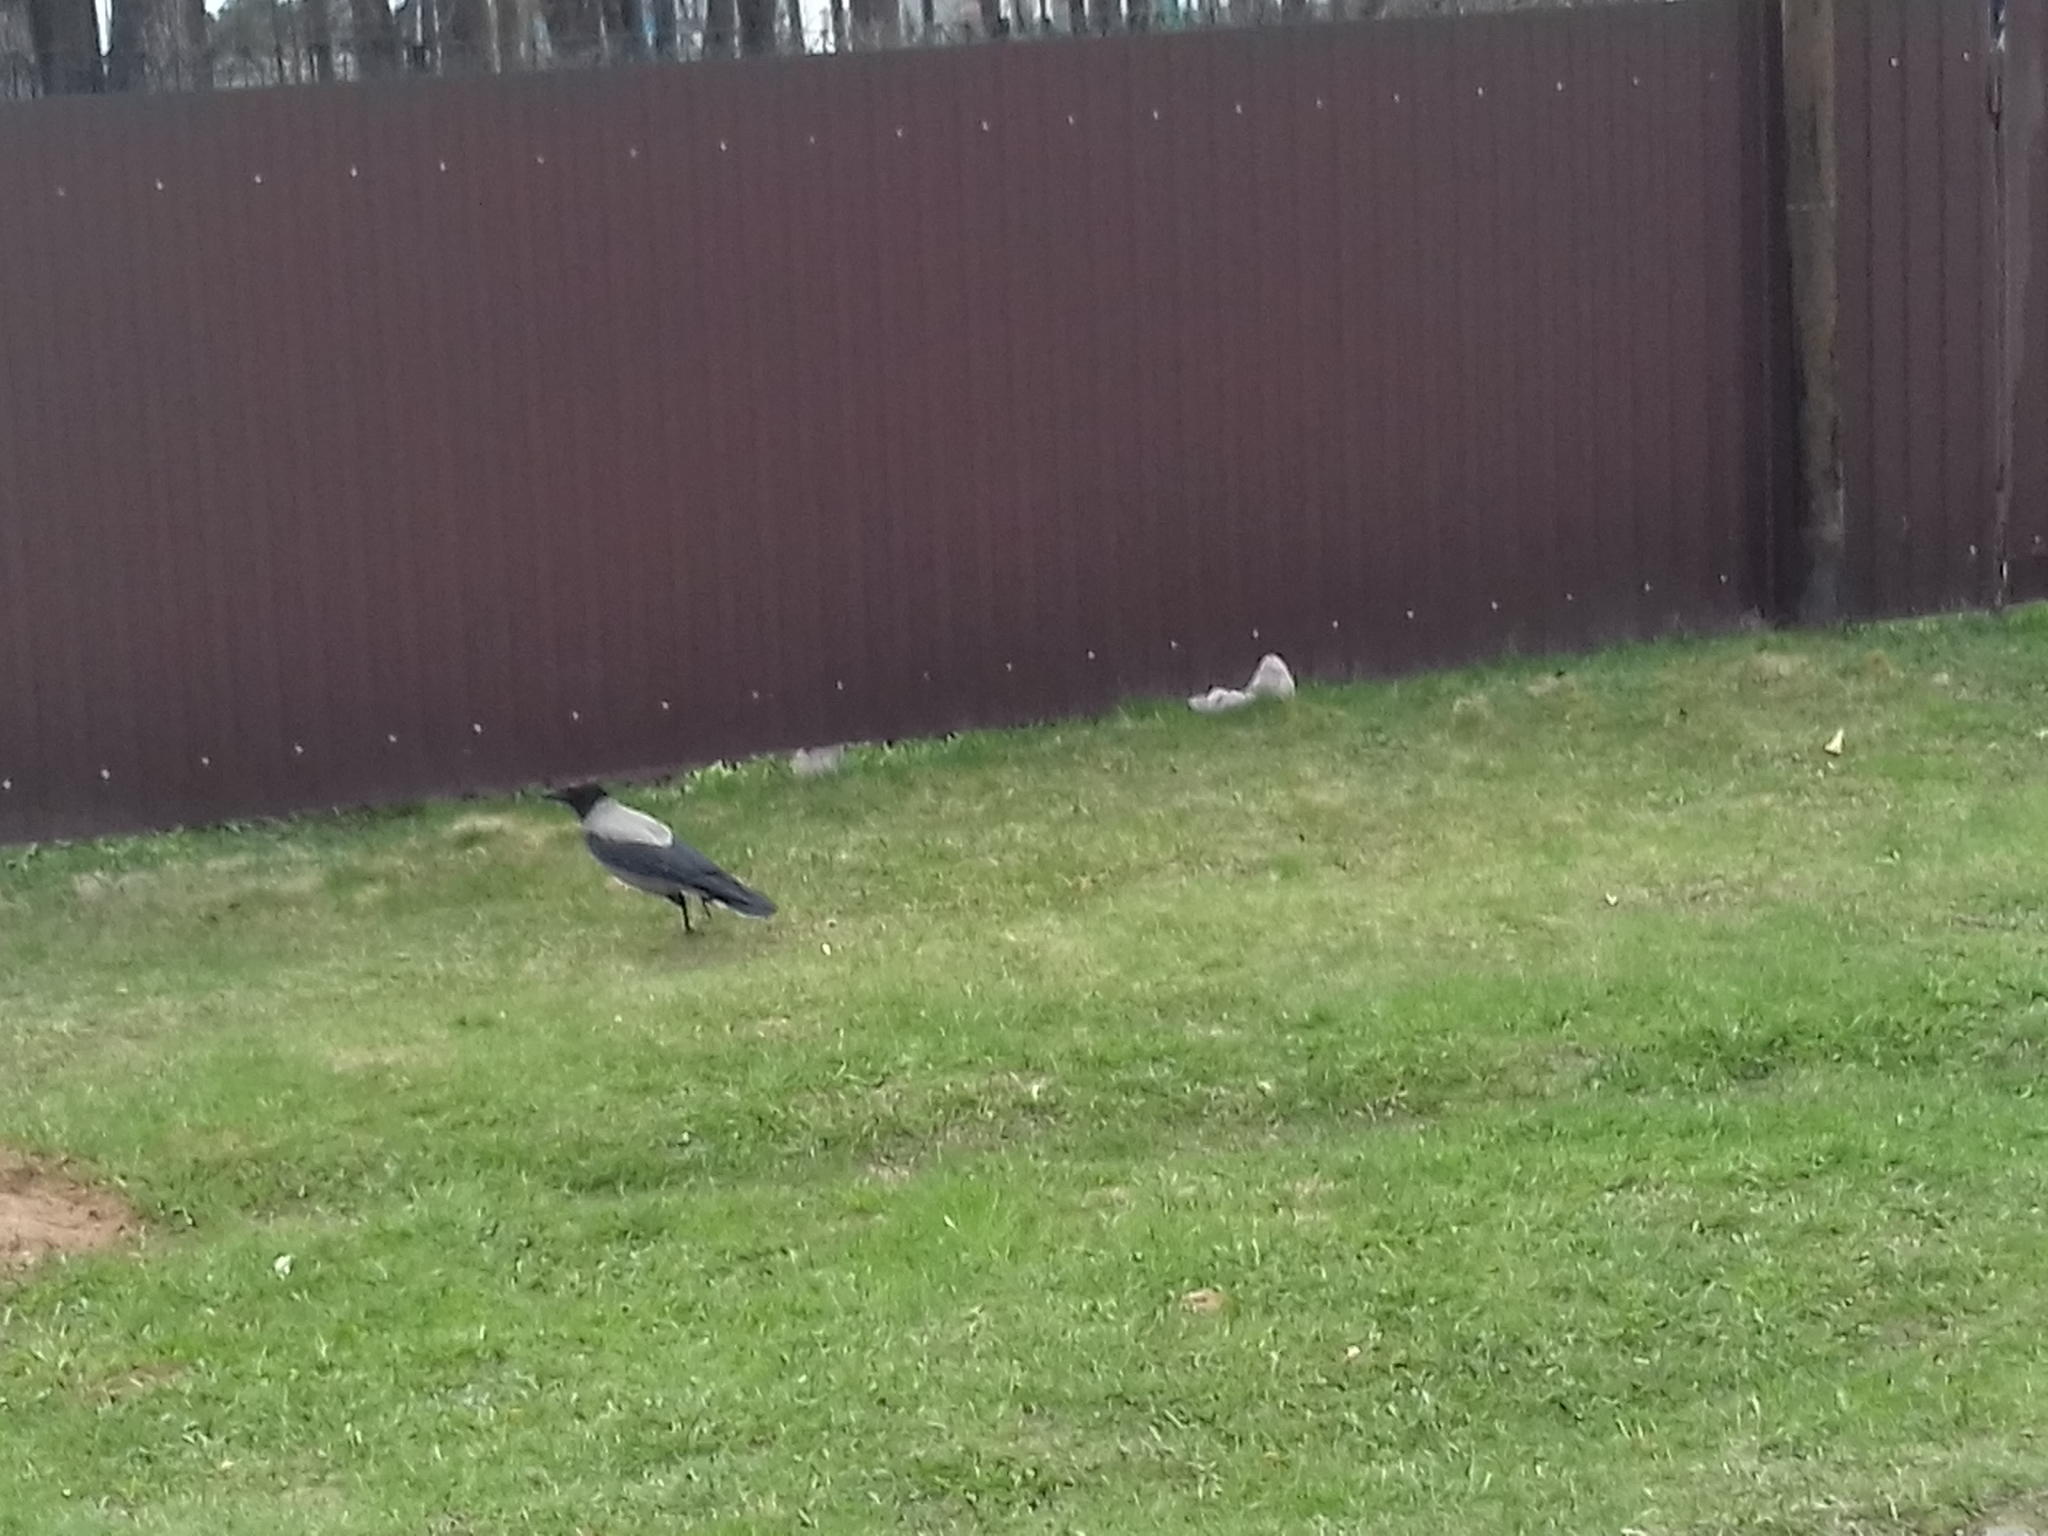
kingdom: Animalia
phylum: Chordata
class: Aves
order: Passeriformes
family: Corvidae
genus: Corvus
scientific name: Corvus cornix
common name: Hooded crow
